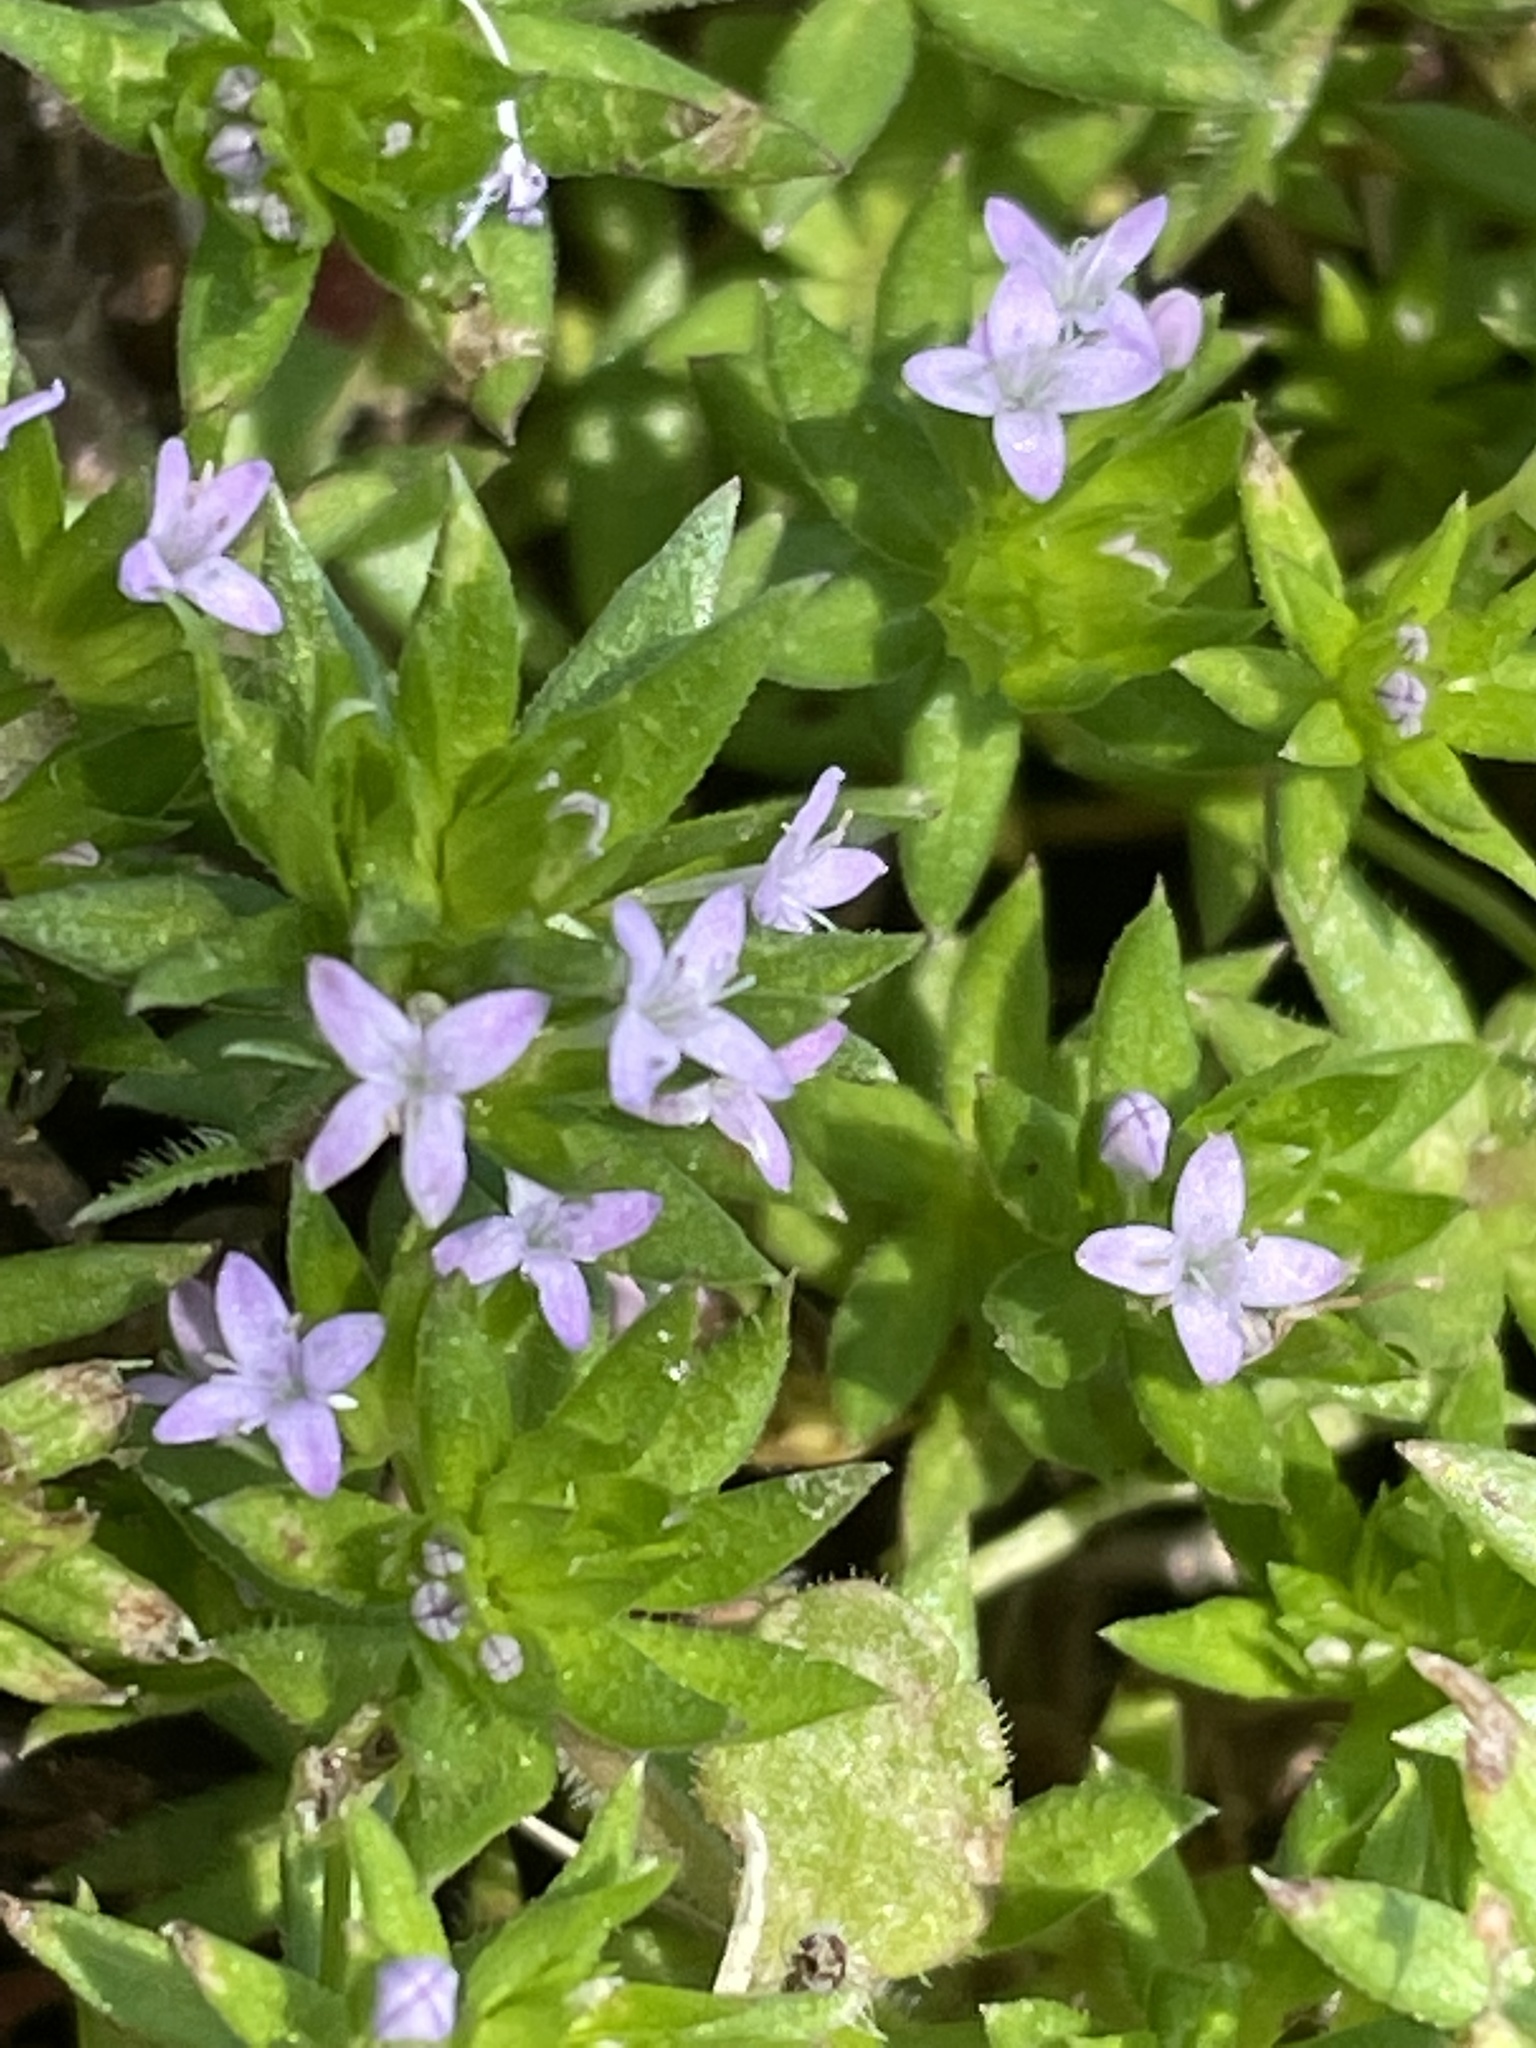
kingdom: Plantae
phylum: Tracheophyta
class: Magnoliopsida
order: Gentianales
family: Rubiaceae
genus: Sherardia
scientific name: Sherardia arvensis
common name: Field madder
